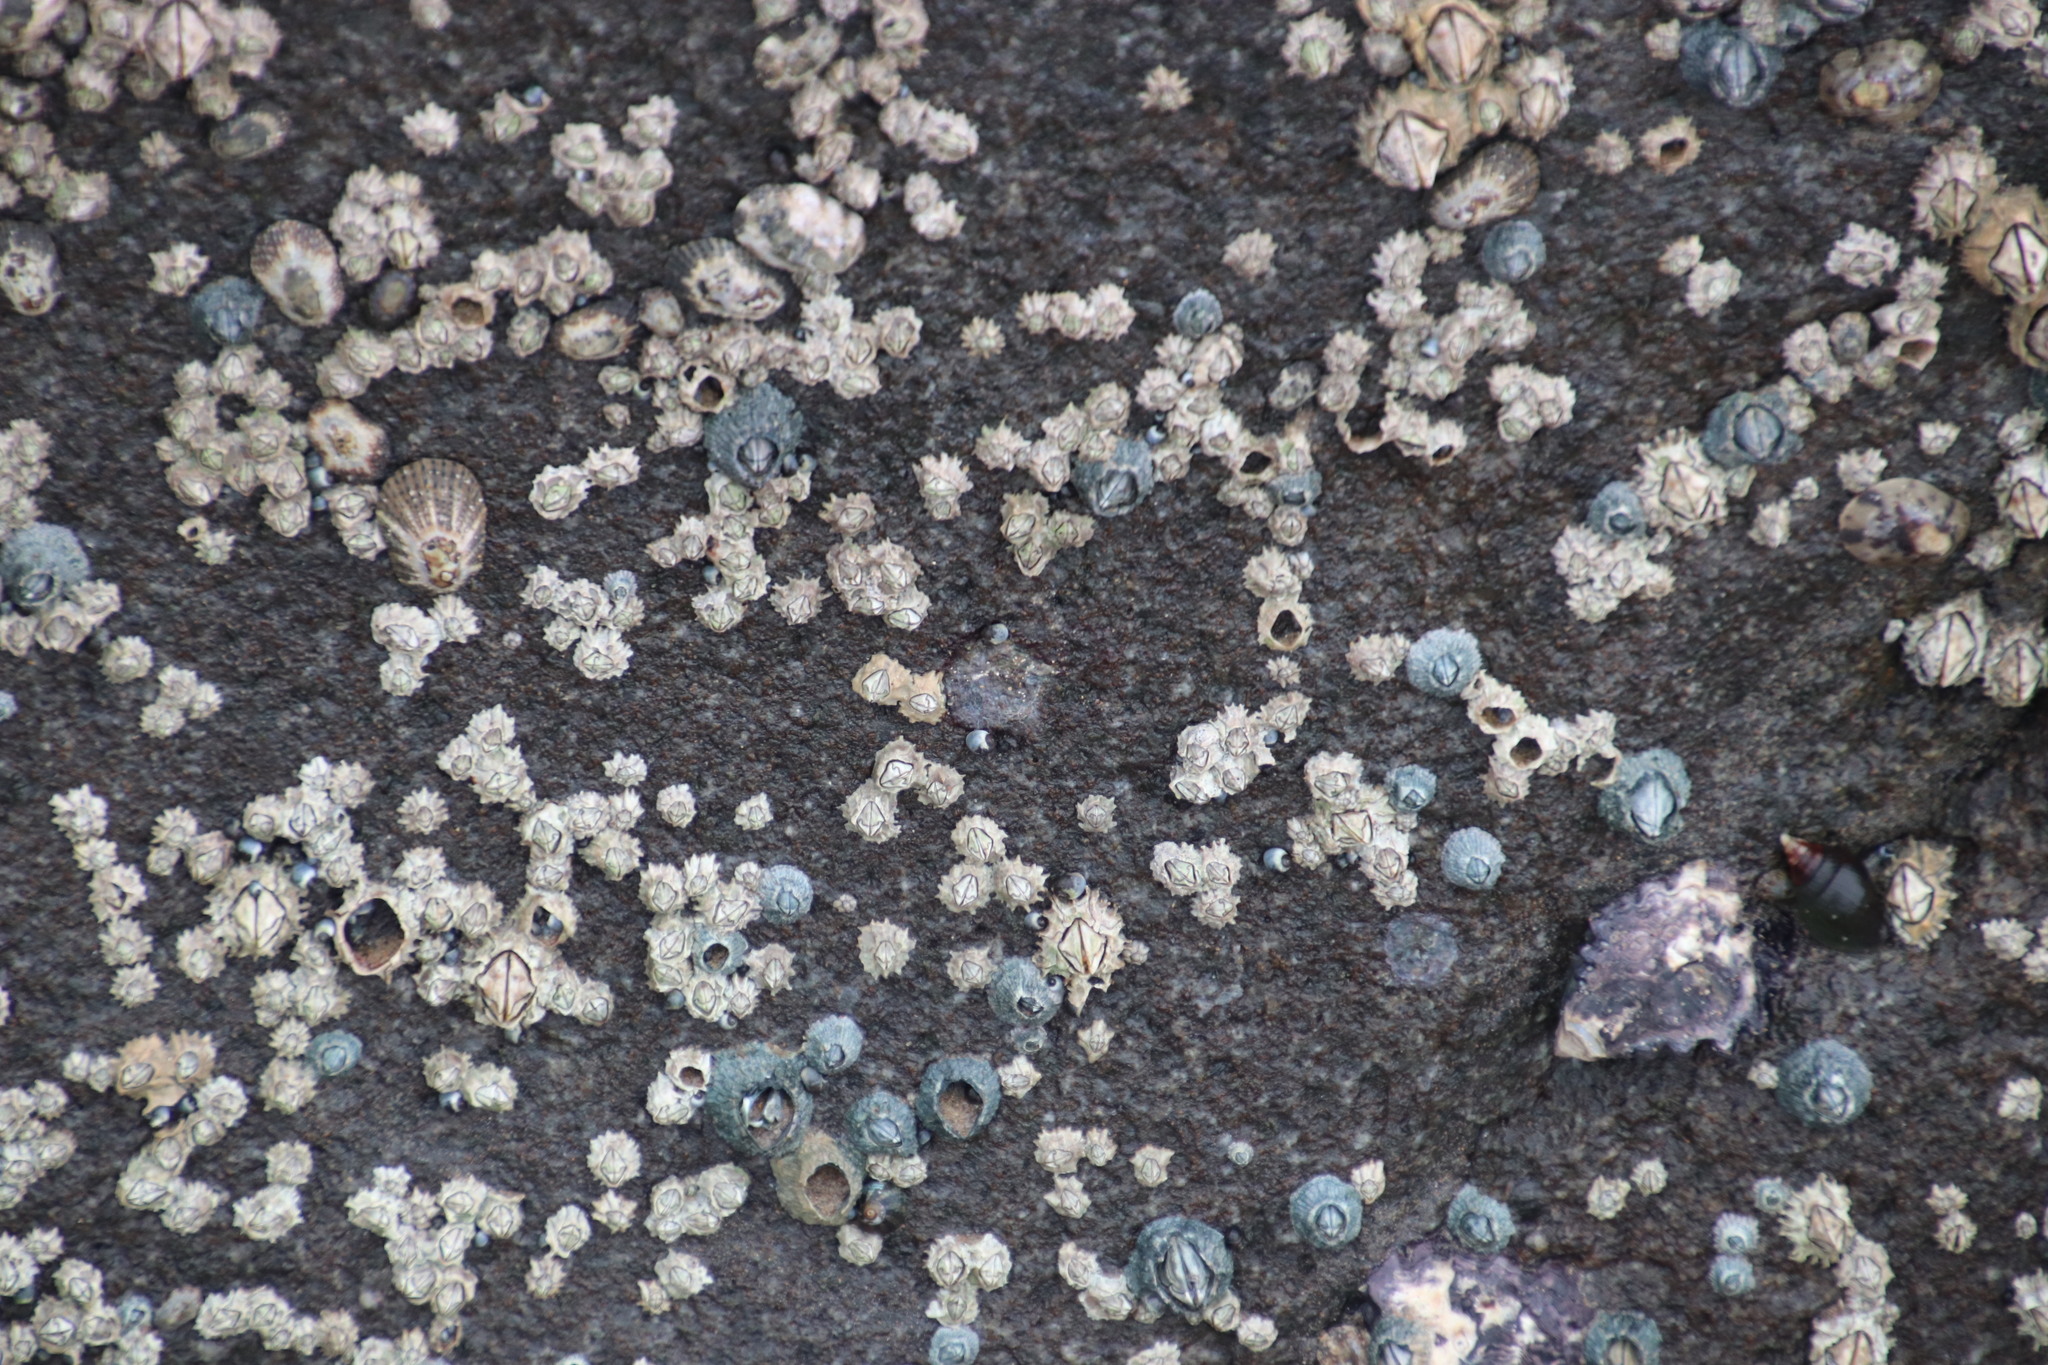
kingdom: Animalia
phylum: Arthropoda
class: Maxillopoda
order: Sessilia
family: Tetraclitidae
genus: Tetraclita
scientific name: Tetraclita serrata
